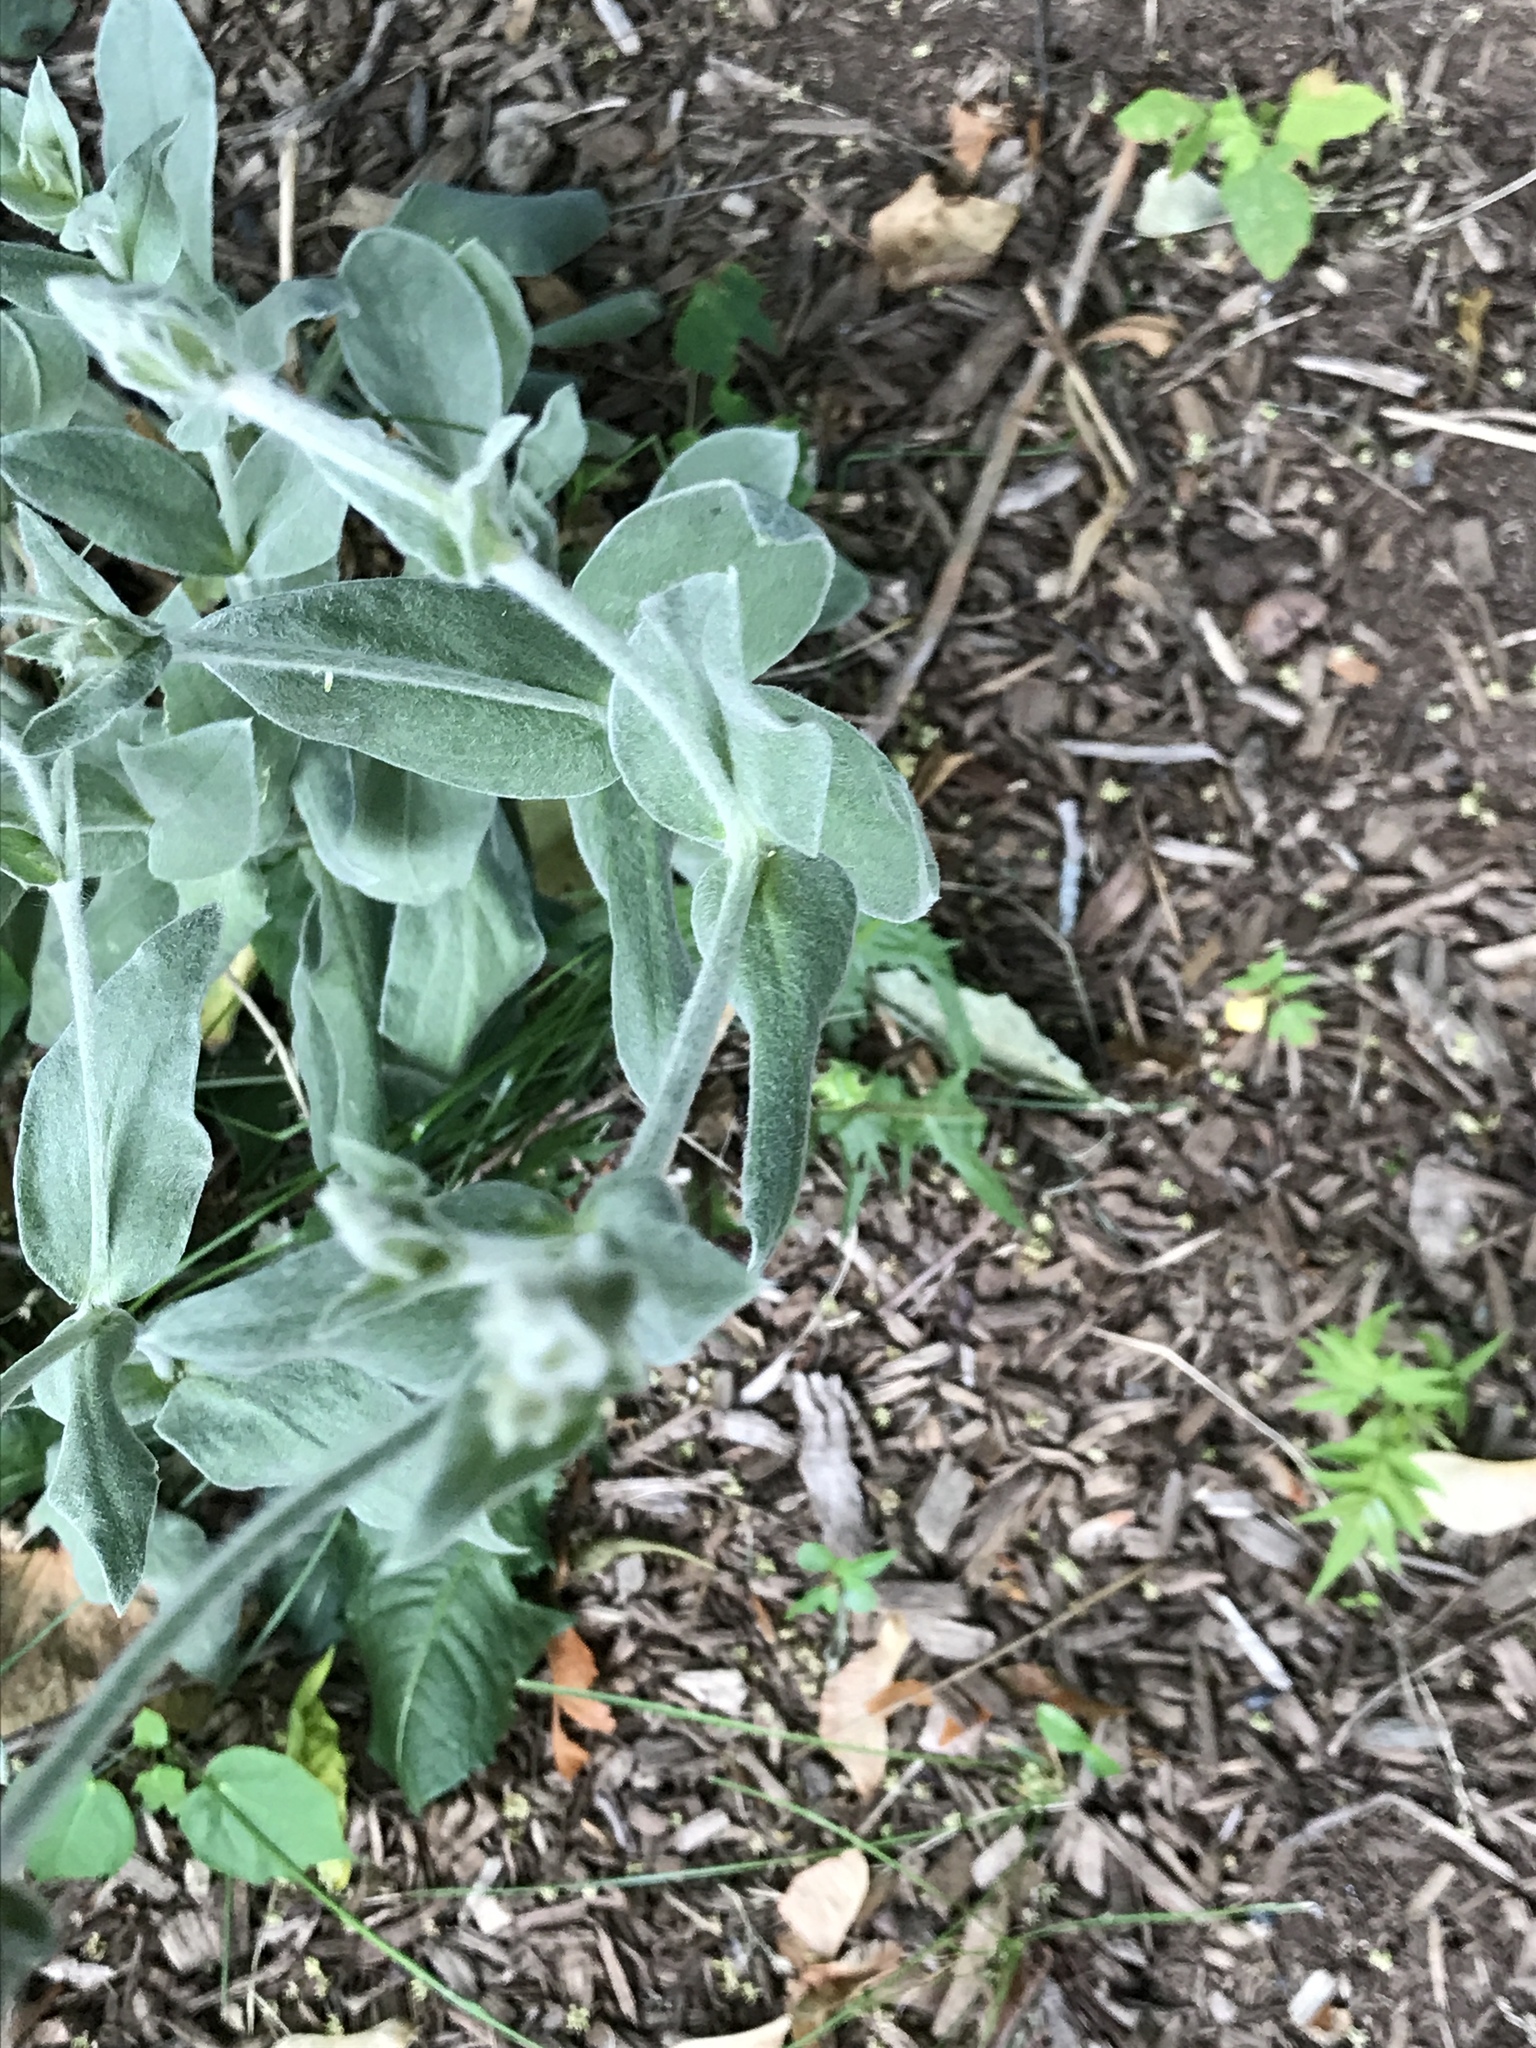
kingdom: Plantae
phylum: Tracheophyta
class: Magnoliopsida
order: Caryophyllales
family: Caryophyllaceae
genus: Silene
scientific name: Silene coronaria
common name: Rose campion
